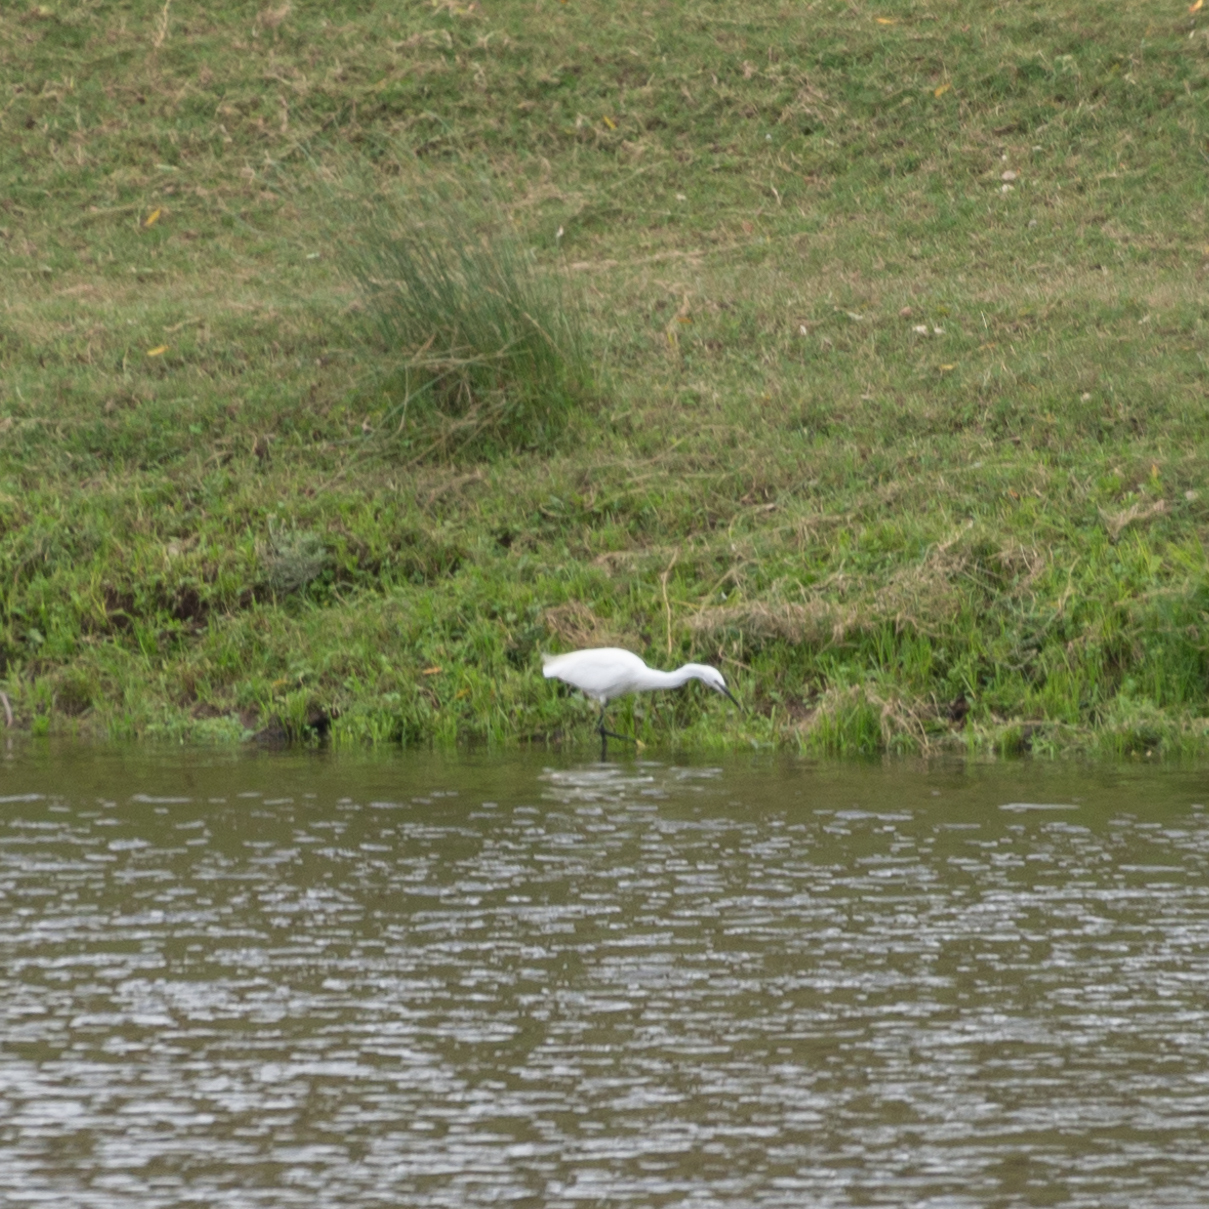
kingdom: Animalia
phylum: Chordata
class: Aves
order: Pelecaniformes
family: Ardeidae
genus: Egretta
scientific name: Egretta garzetta
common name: Little egret
